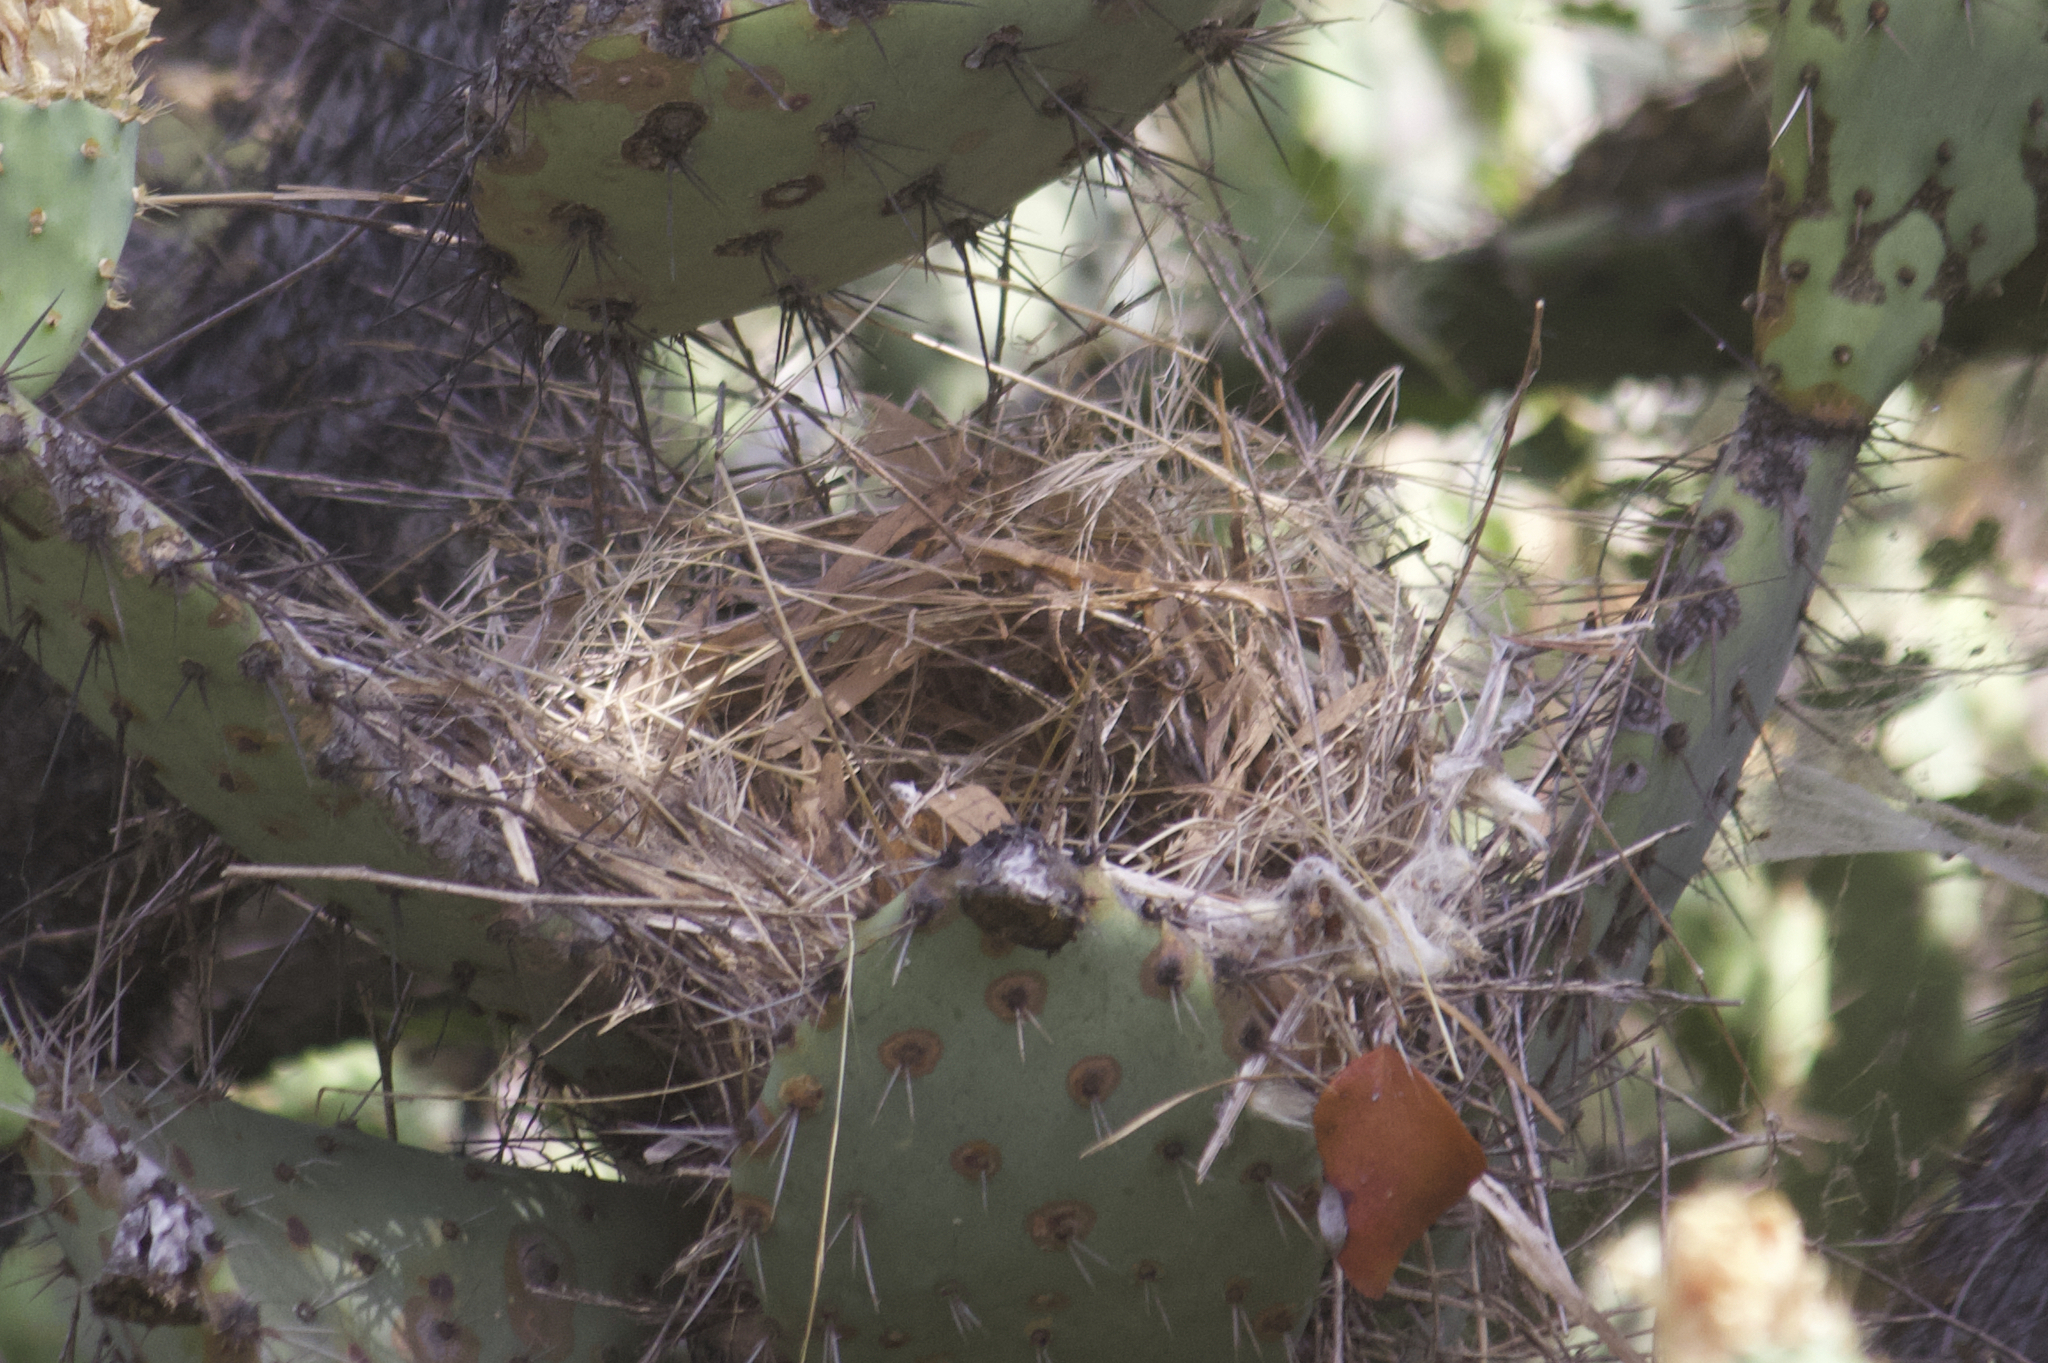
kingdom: Animalia
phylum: Chordata
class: Aves
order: Passeriformes
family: Troglodytidae
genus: Campylorhynchus
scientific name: Campylorhynchus brunneicapillus
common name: Cactus wren
